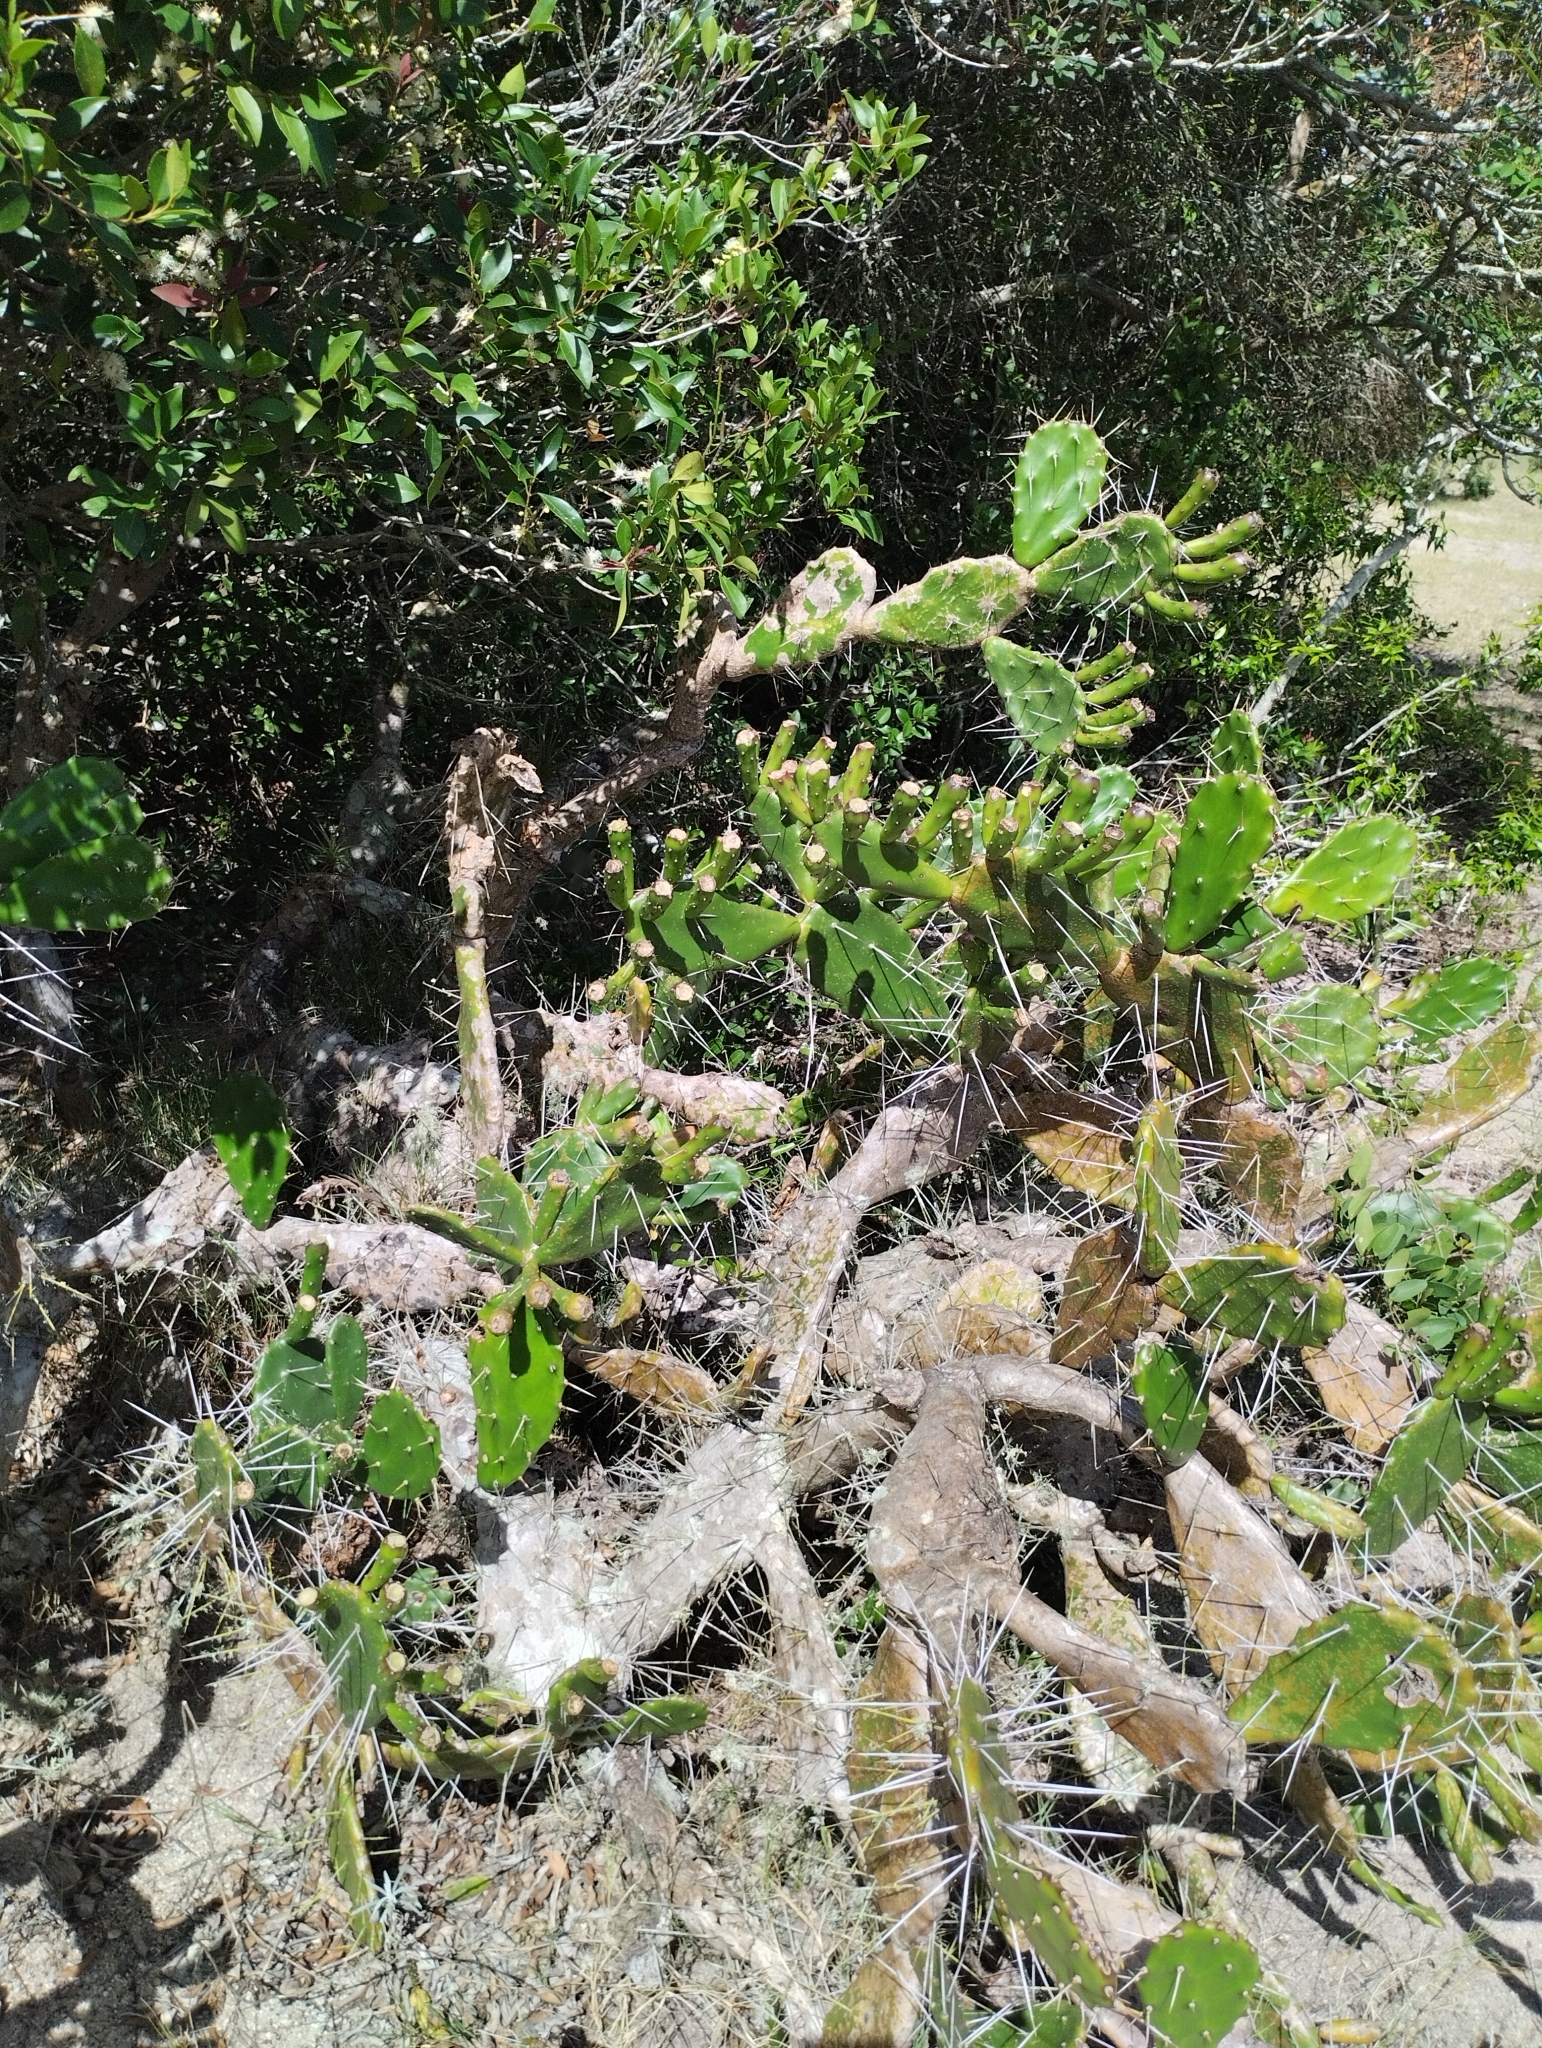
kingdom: Plantae
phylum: Tracheophyta
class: Magnoliopsida
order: Caryophyllales
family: Cactaceae
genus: Opuntia
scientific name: Opuntia arechavaletae
